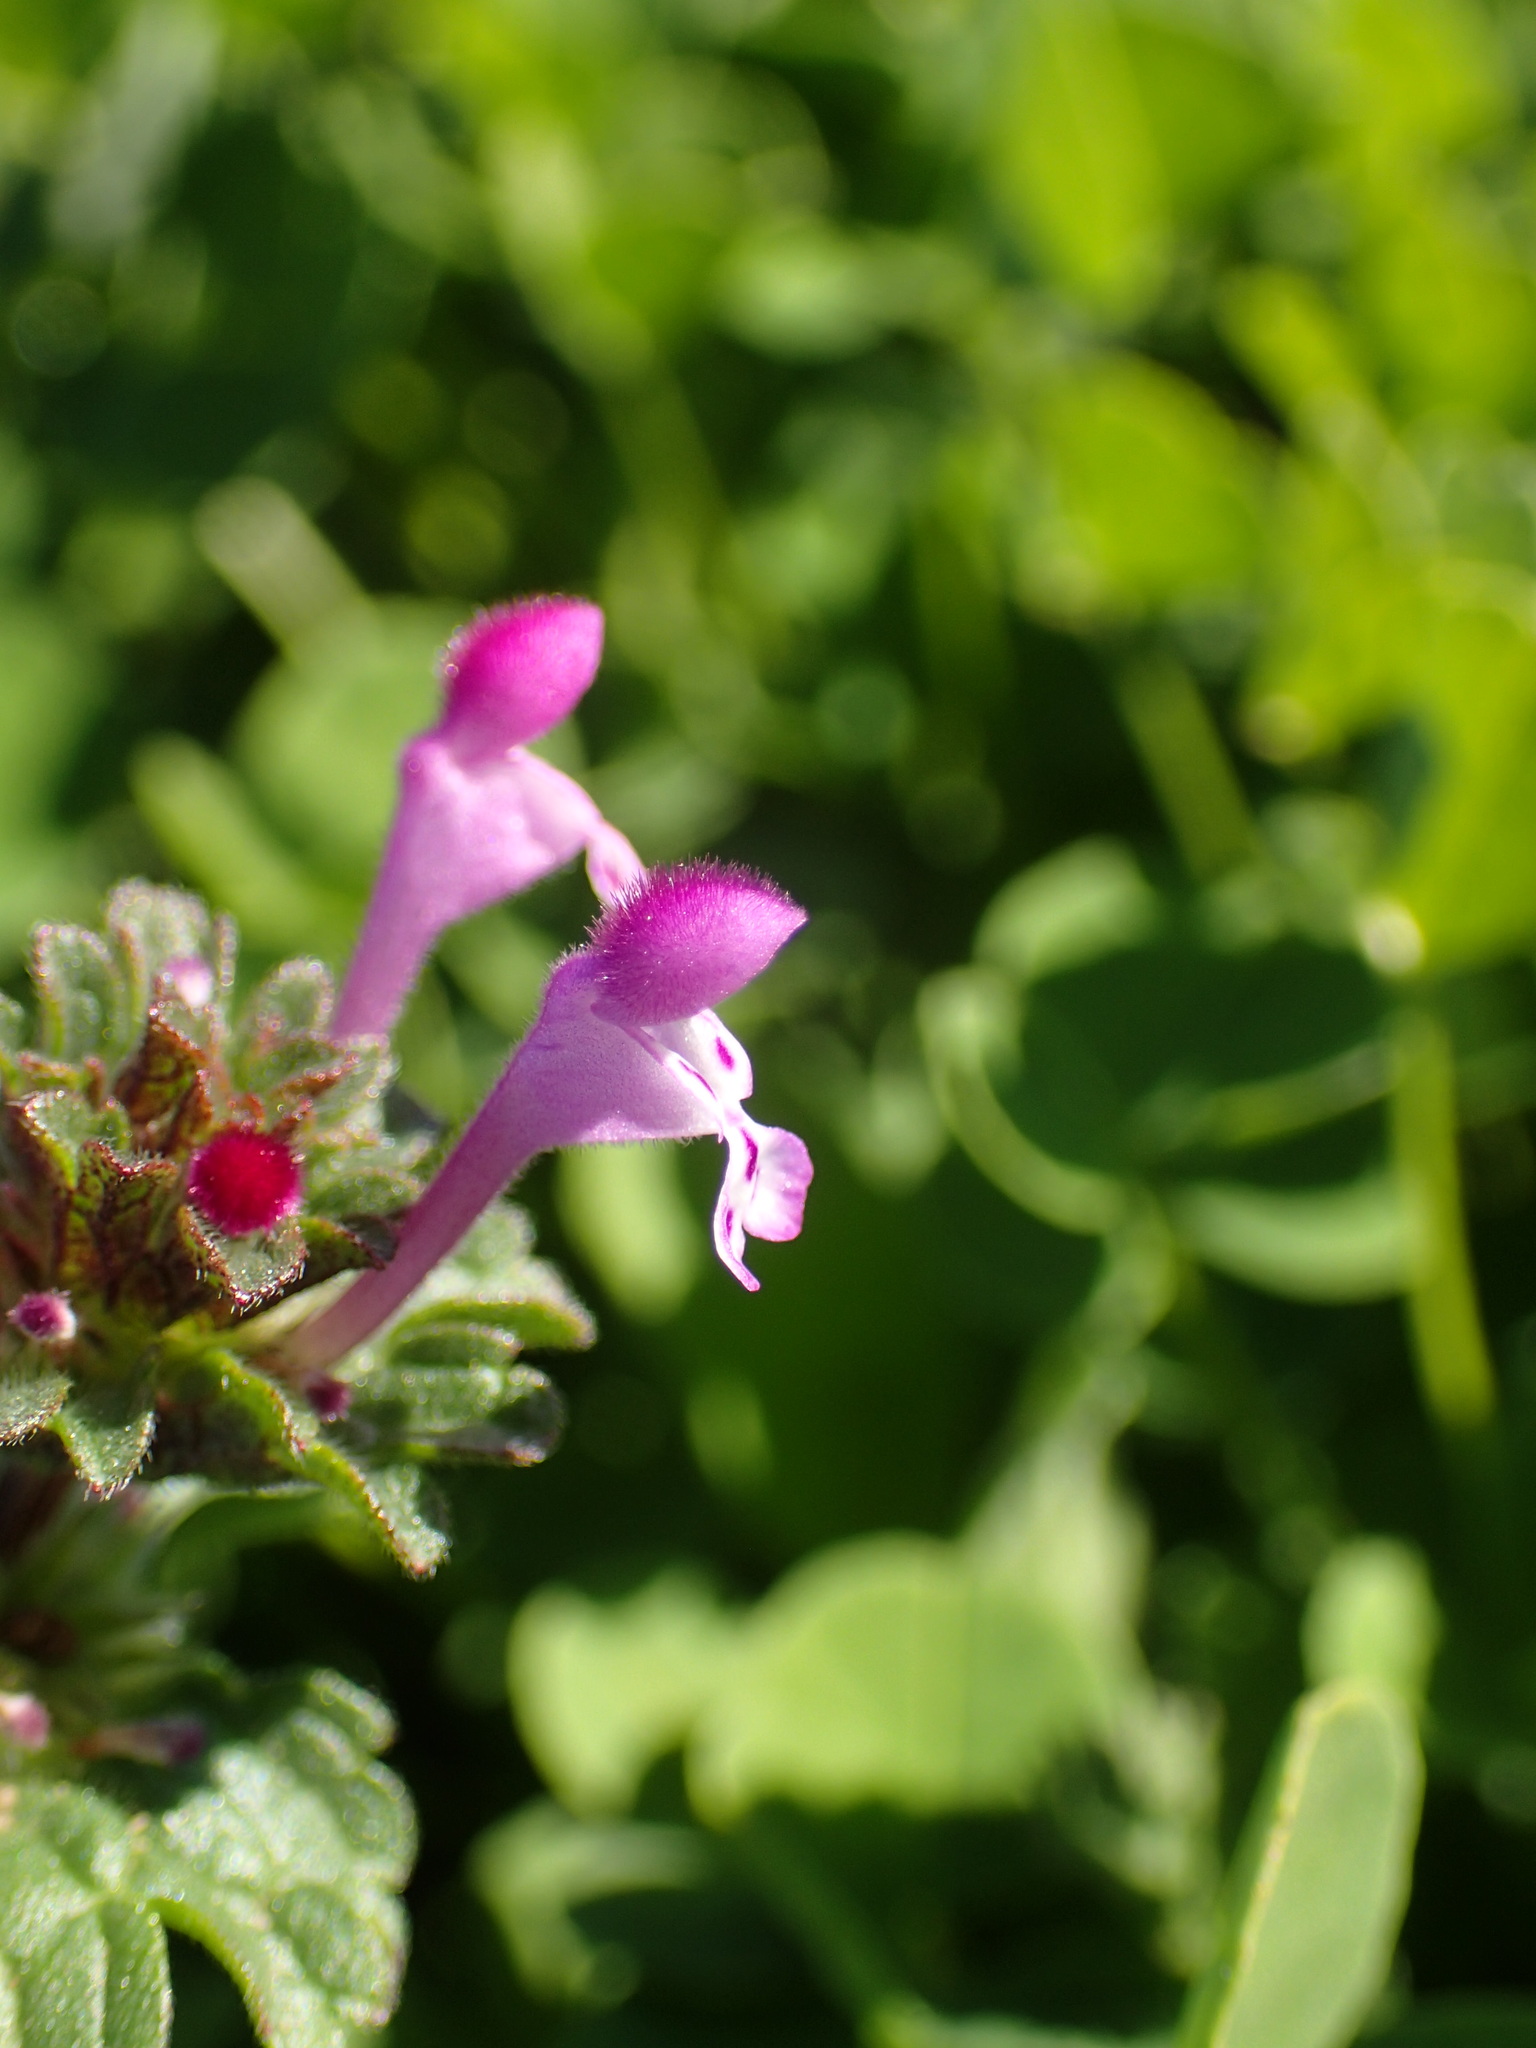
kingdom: Plantae
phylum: Tracheophyta
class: Magnoliopsida
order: Lamiales
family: Lamiaceae
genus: Lamium
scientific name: Lamium amplexicaule
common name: Henbit dead-nettle
